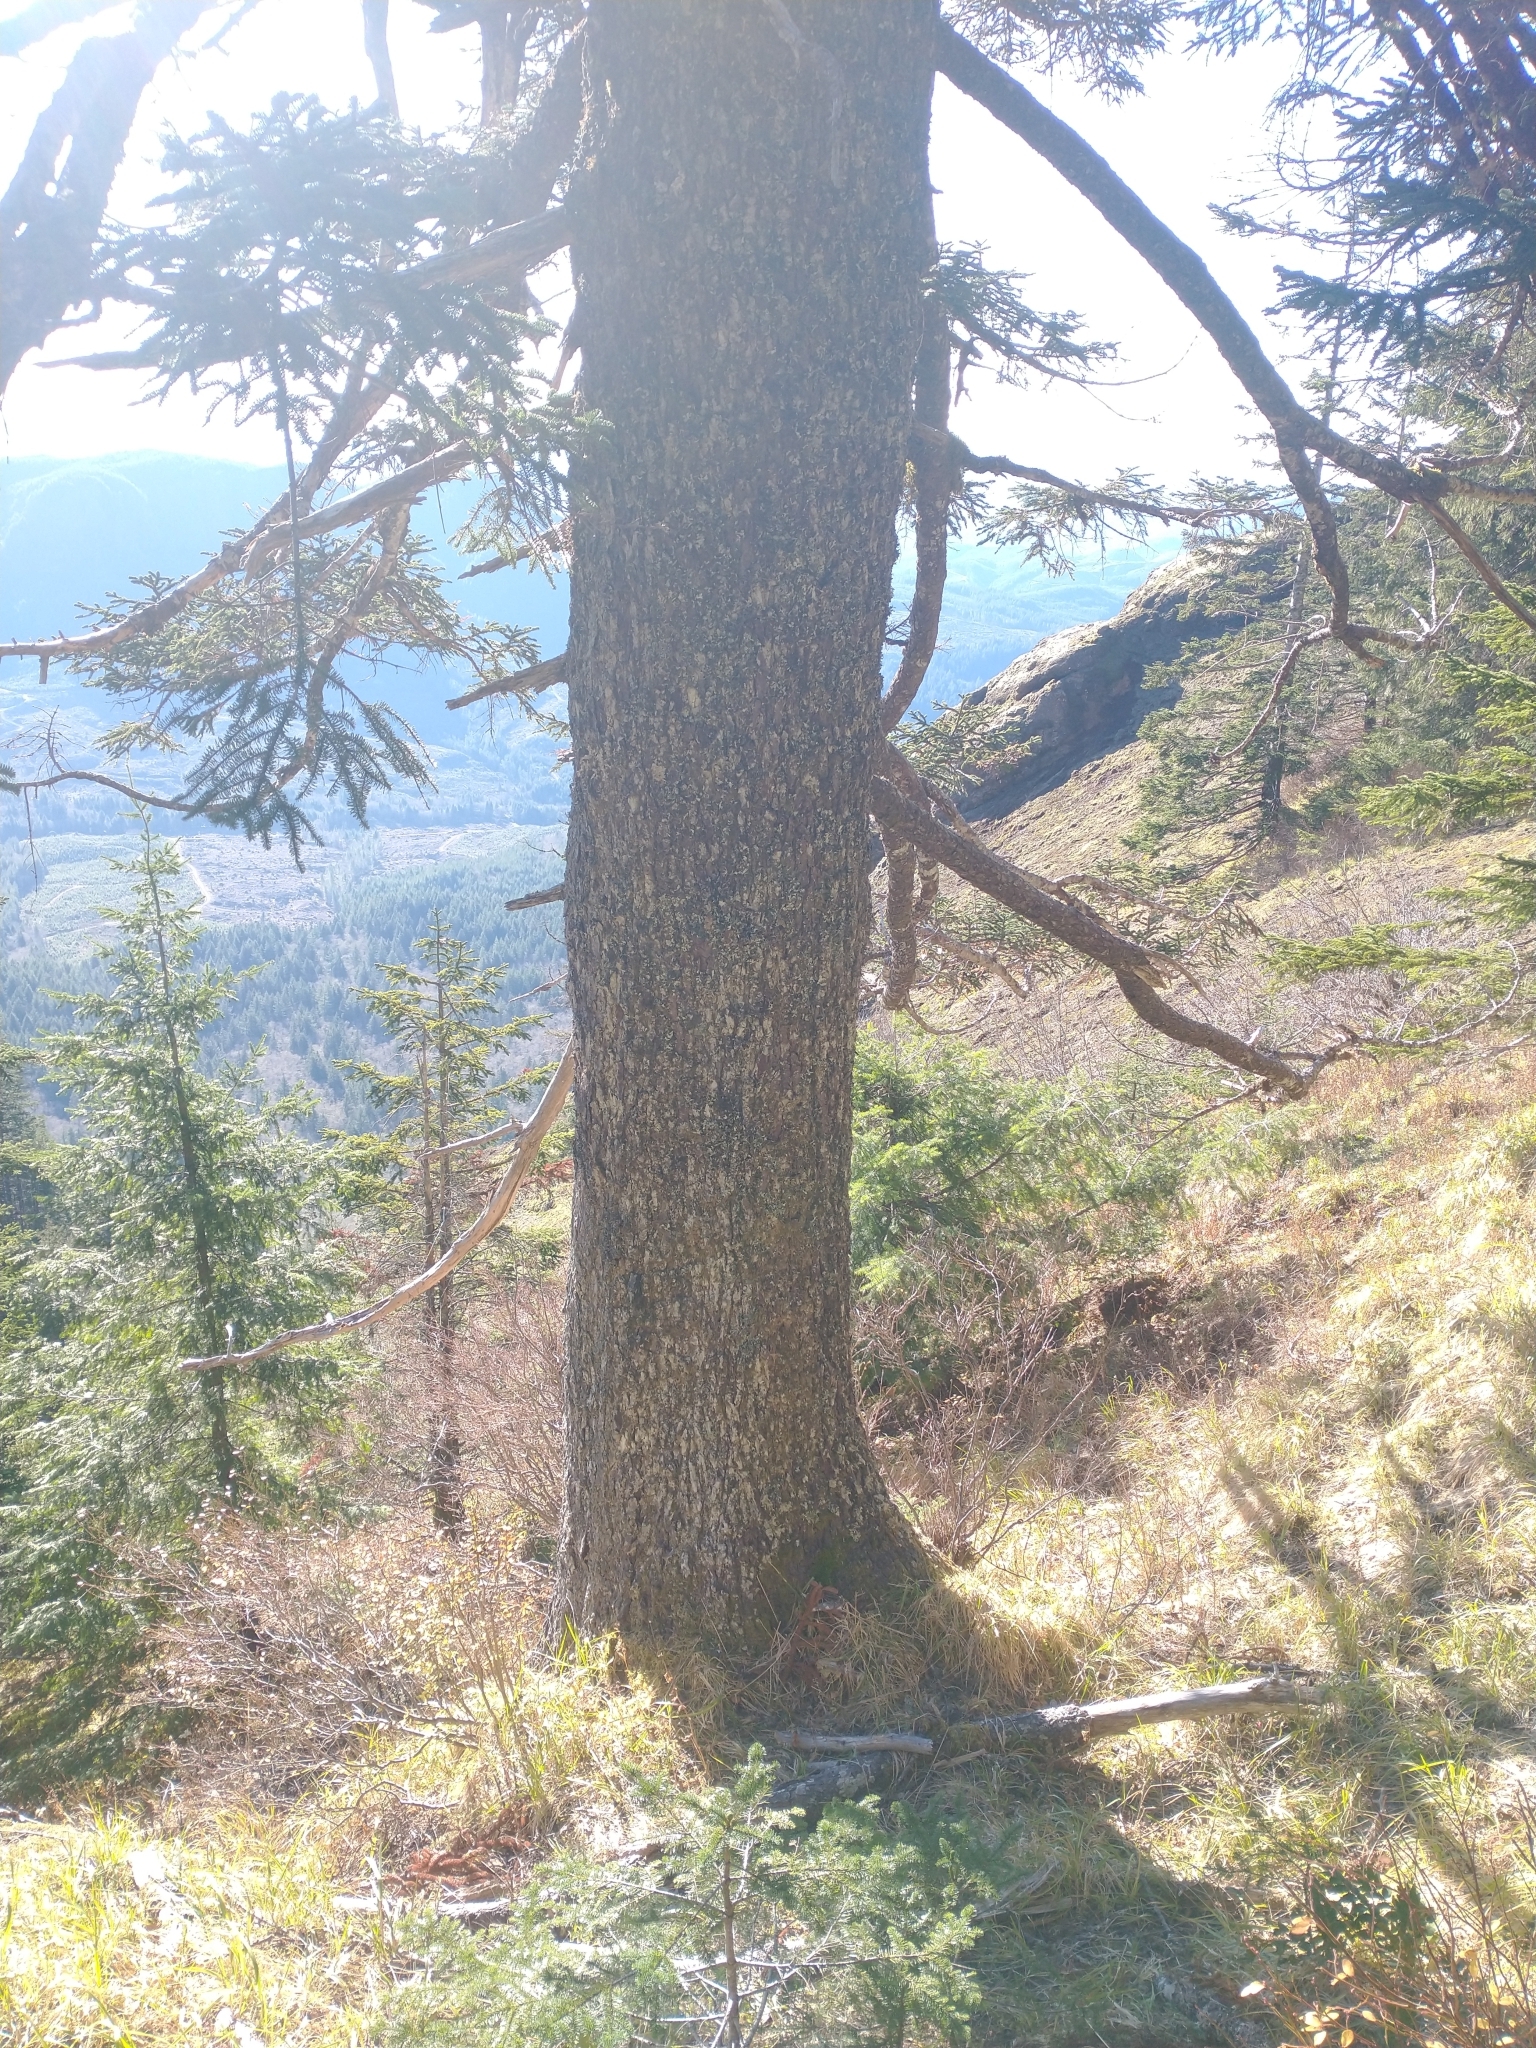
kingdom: Plantae
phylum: Tracheophyta
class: Pinopsida
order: Pinales
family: Pinaceae
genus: Abies
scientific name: Abies procera
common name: Noble fir
